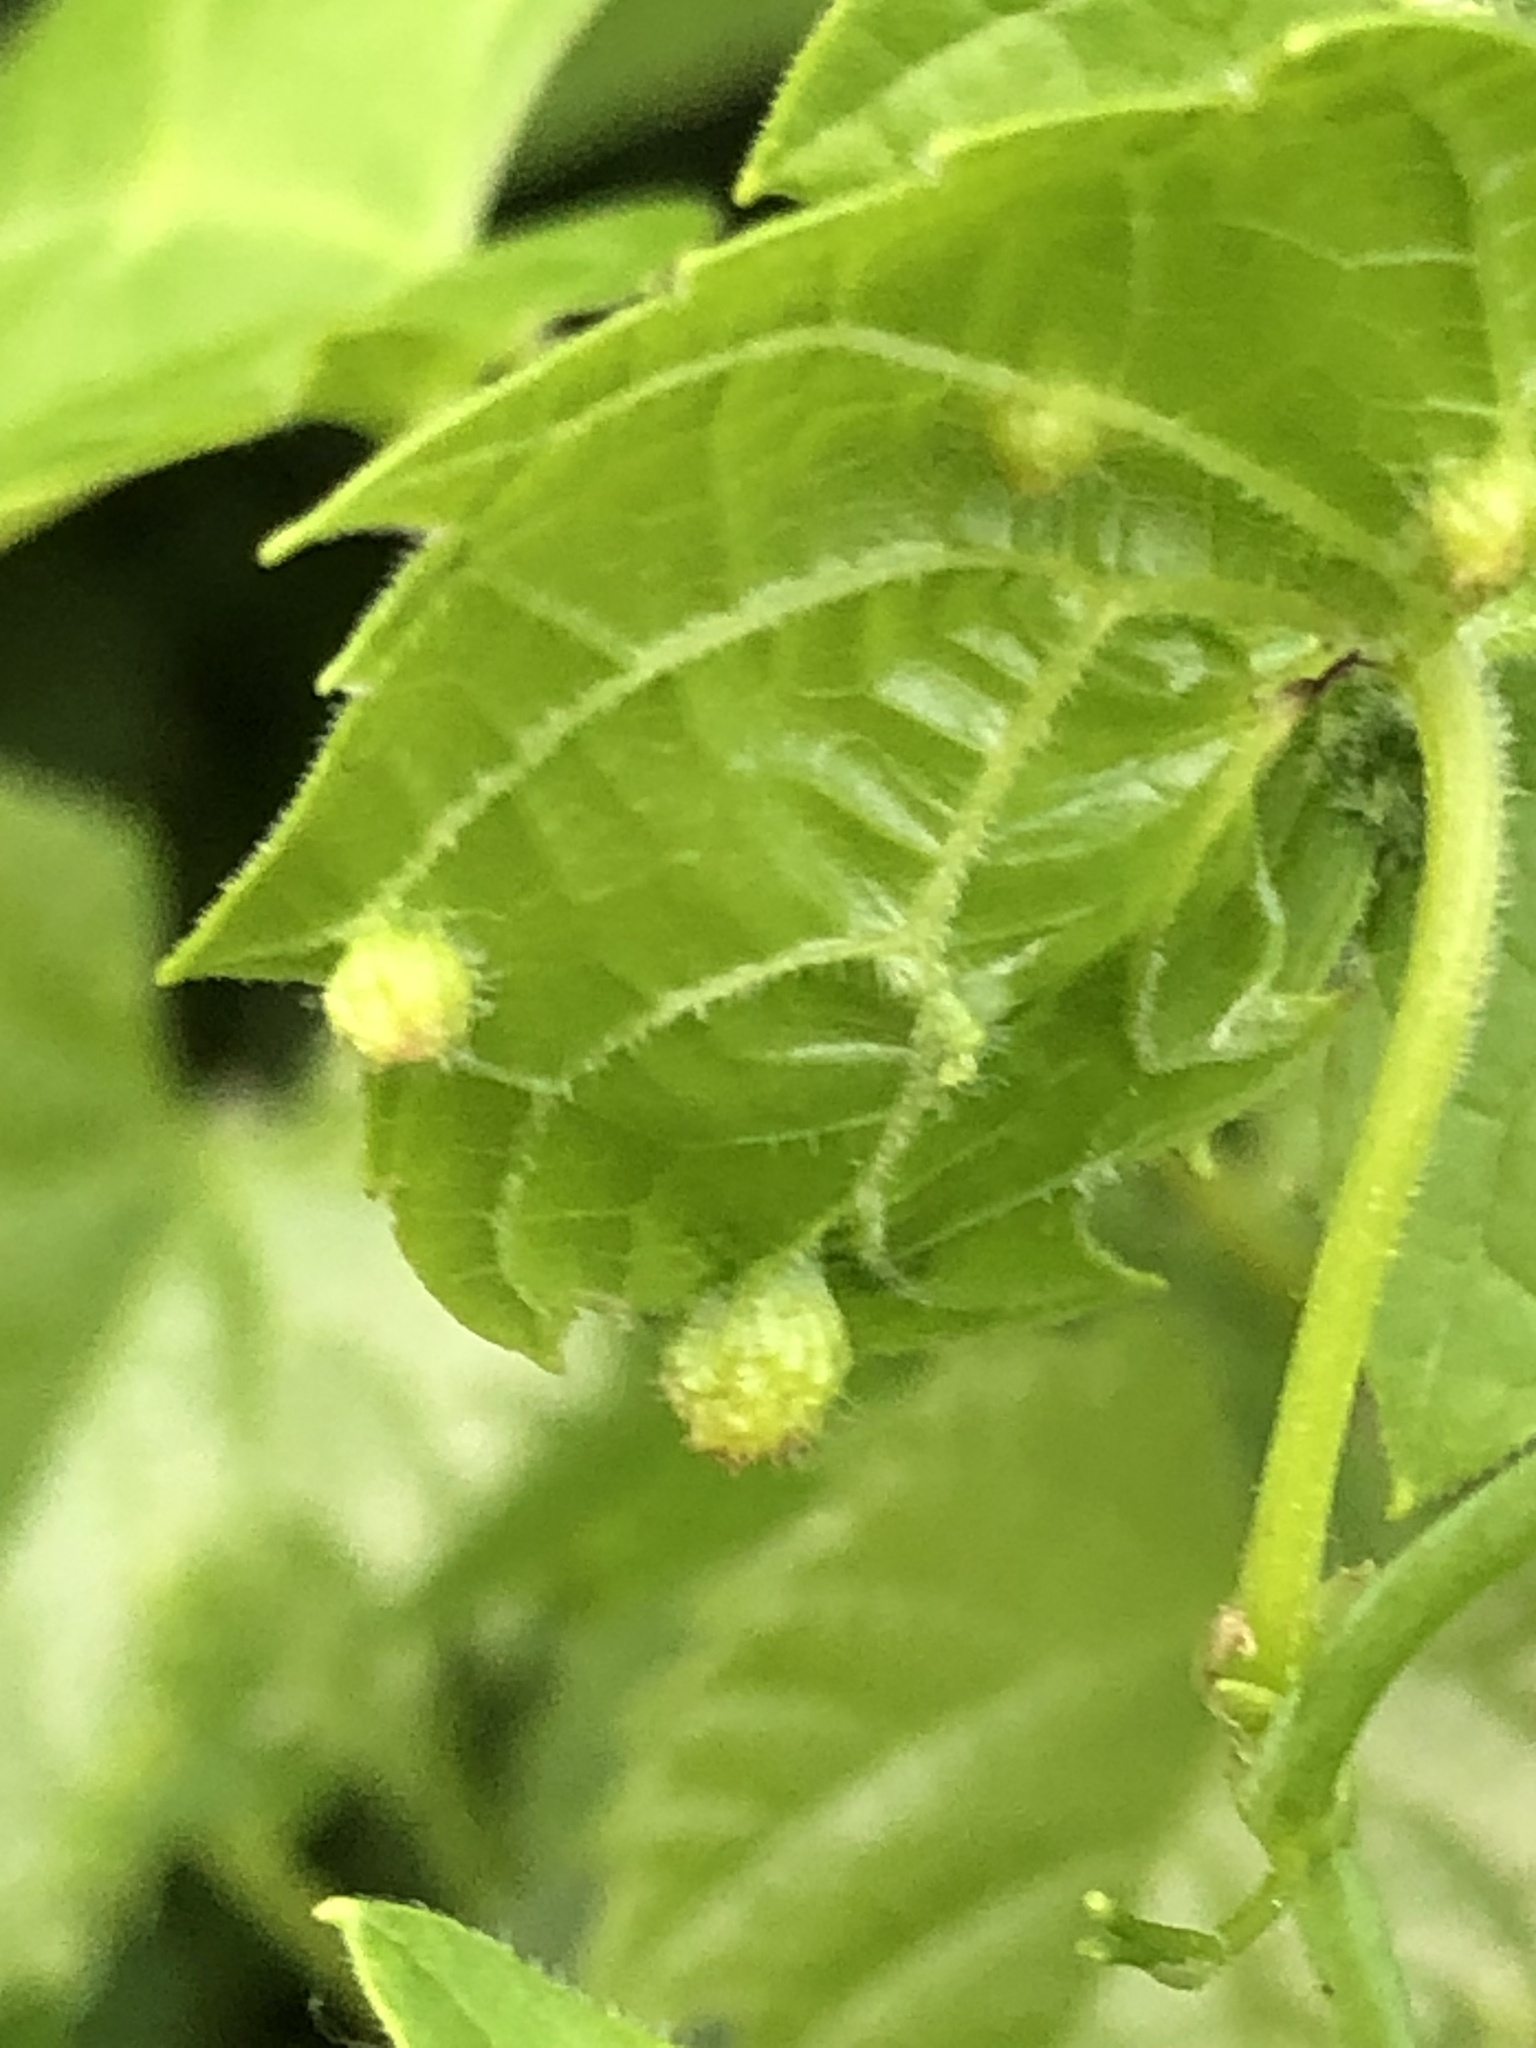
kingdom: Animalia
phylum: Arthropoda
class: Insecta
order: Hemiptera
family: Phylloxeridae
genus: Daktulosphaira
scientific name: Daktulosphaira vitifoliae
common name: Grape phylloxera
